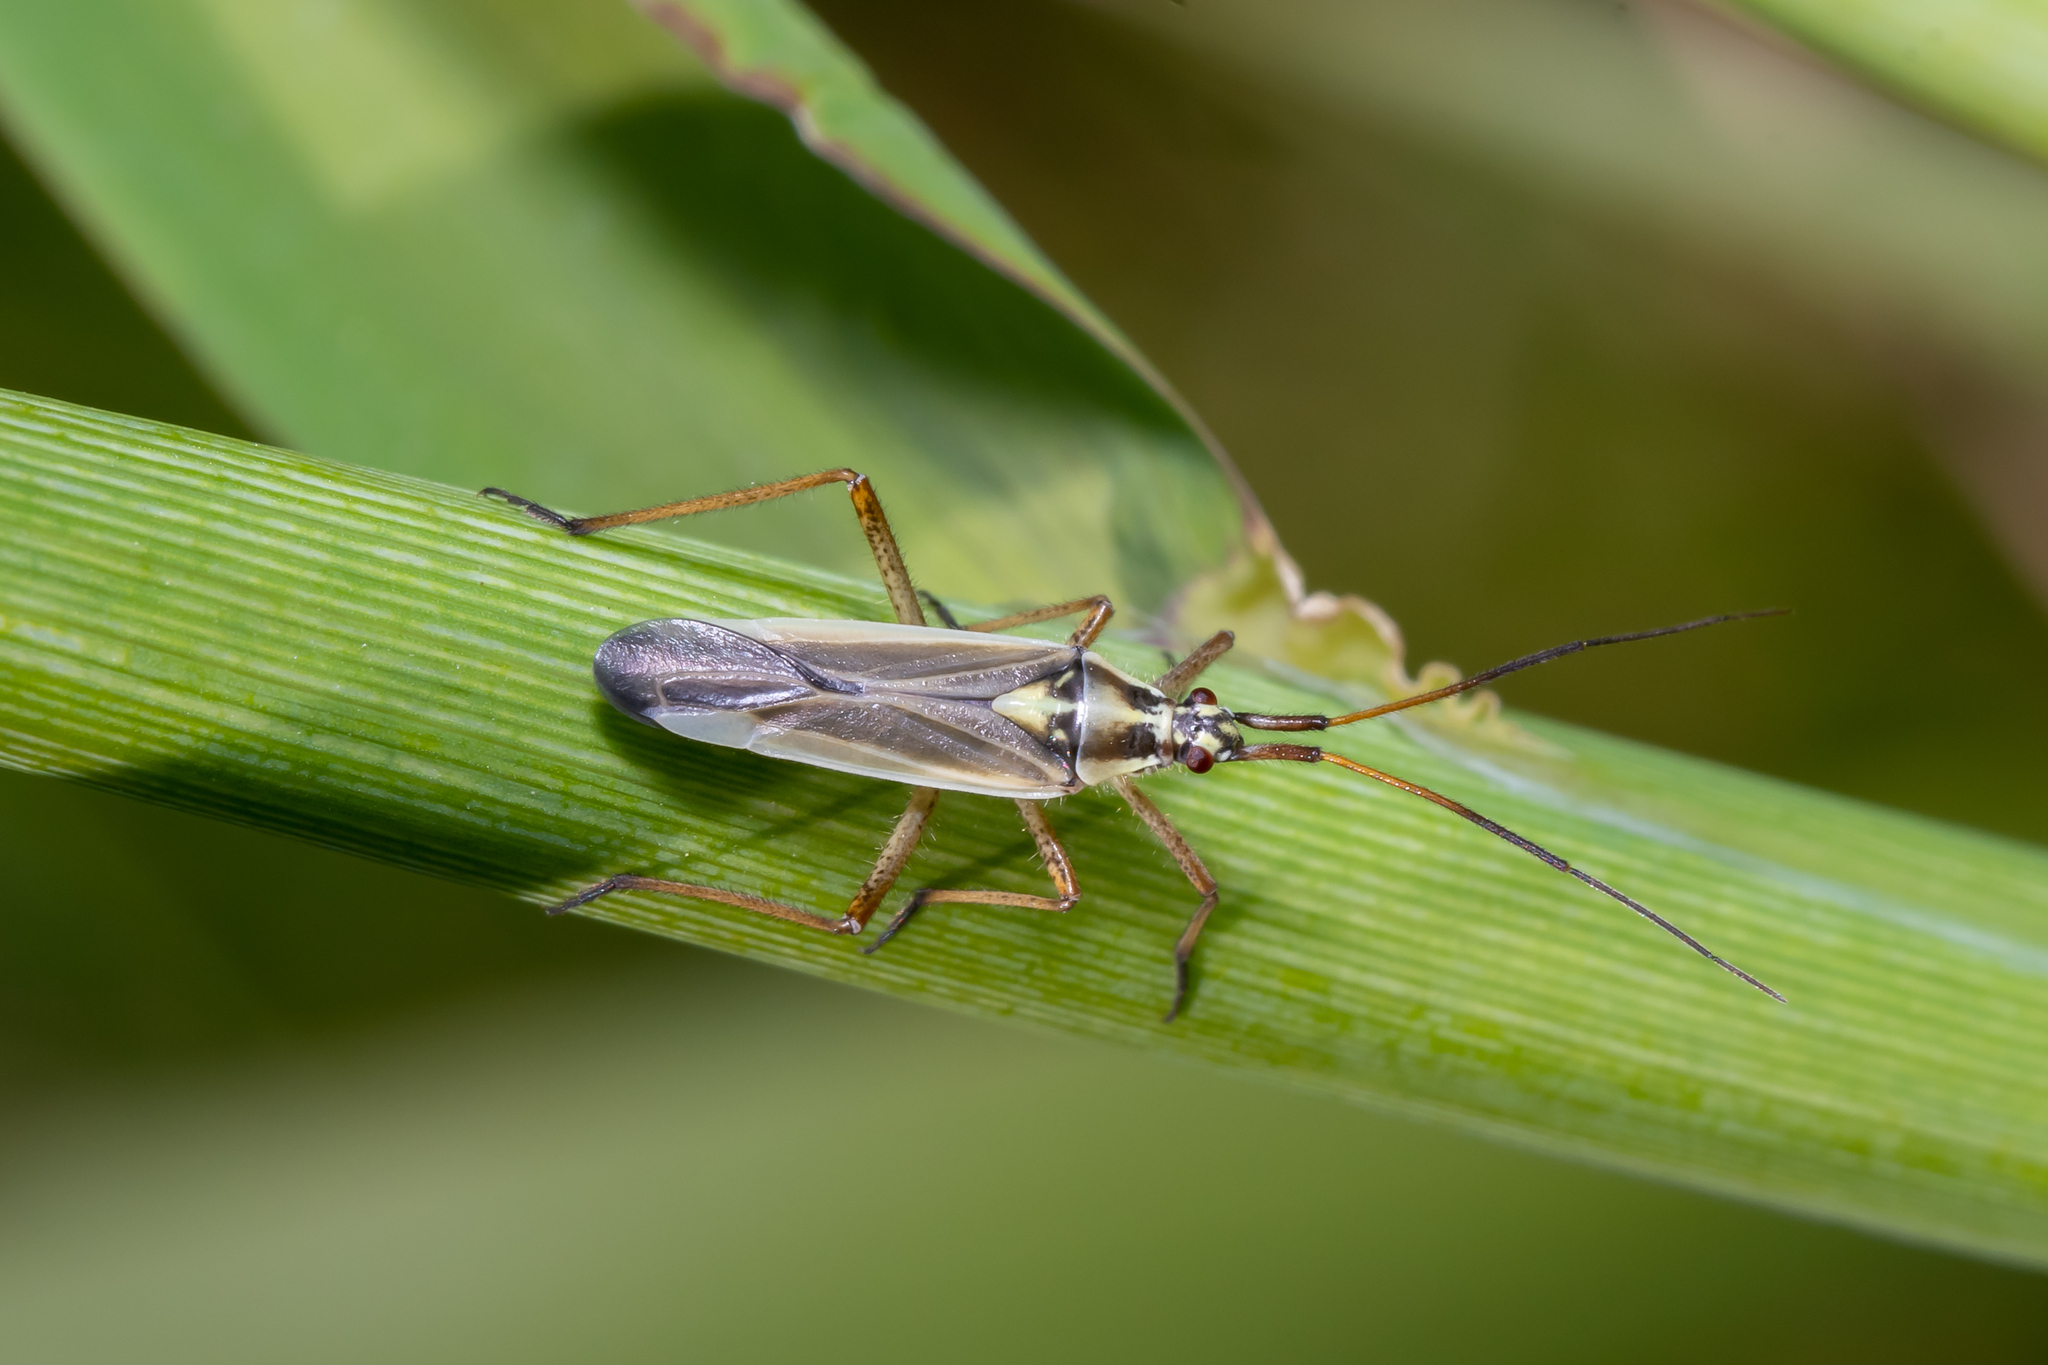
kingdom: Animalia
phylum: Arthropoda
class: Insecta
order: Hemiptera
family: Miridae
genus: Leptopterna
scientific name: Leptopterna dolabrata
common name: Meadow plant bug
